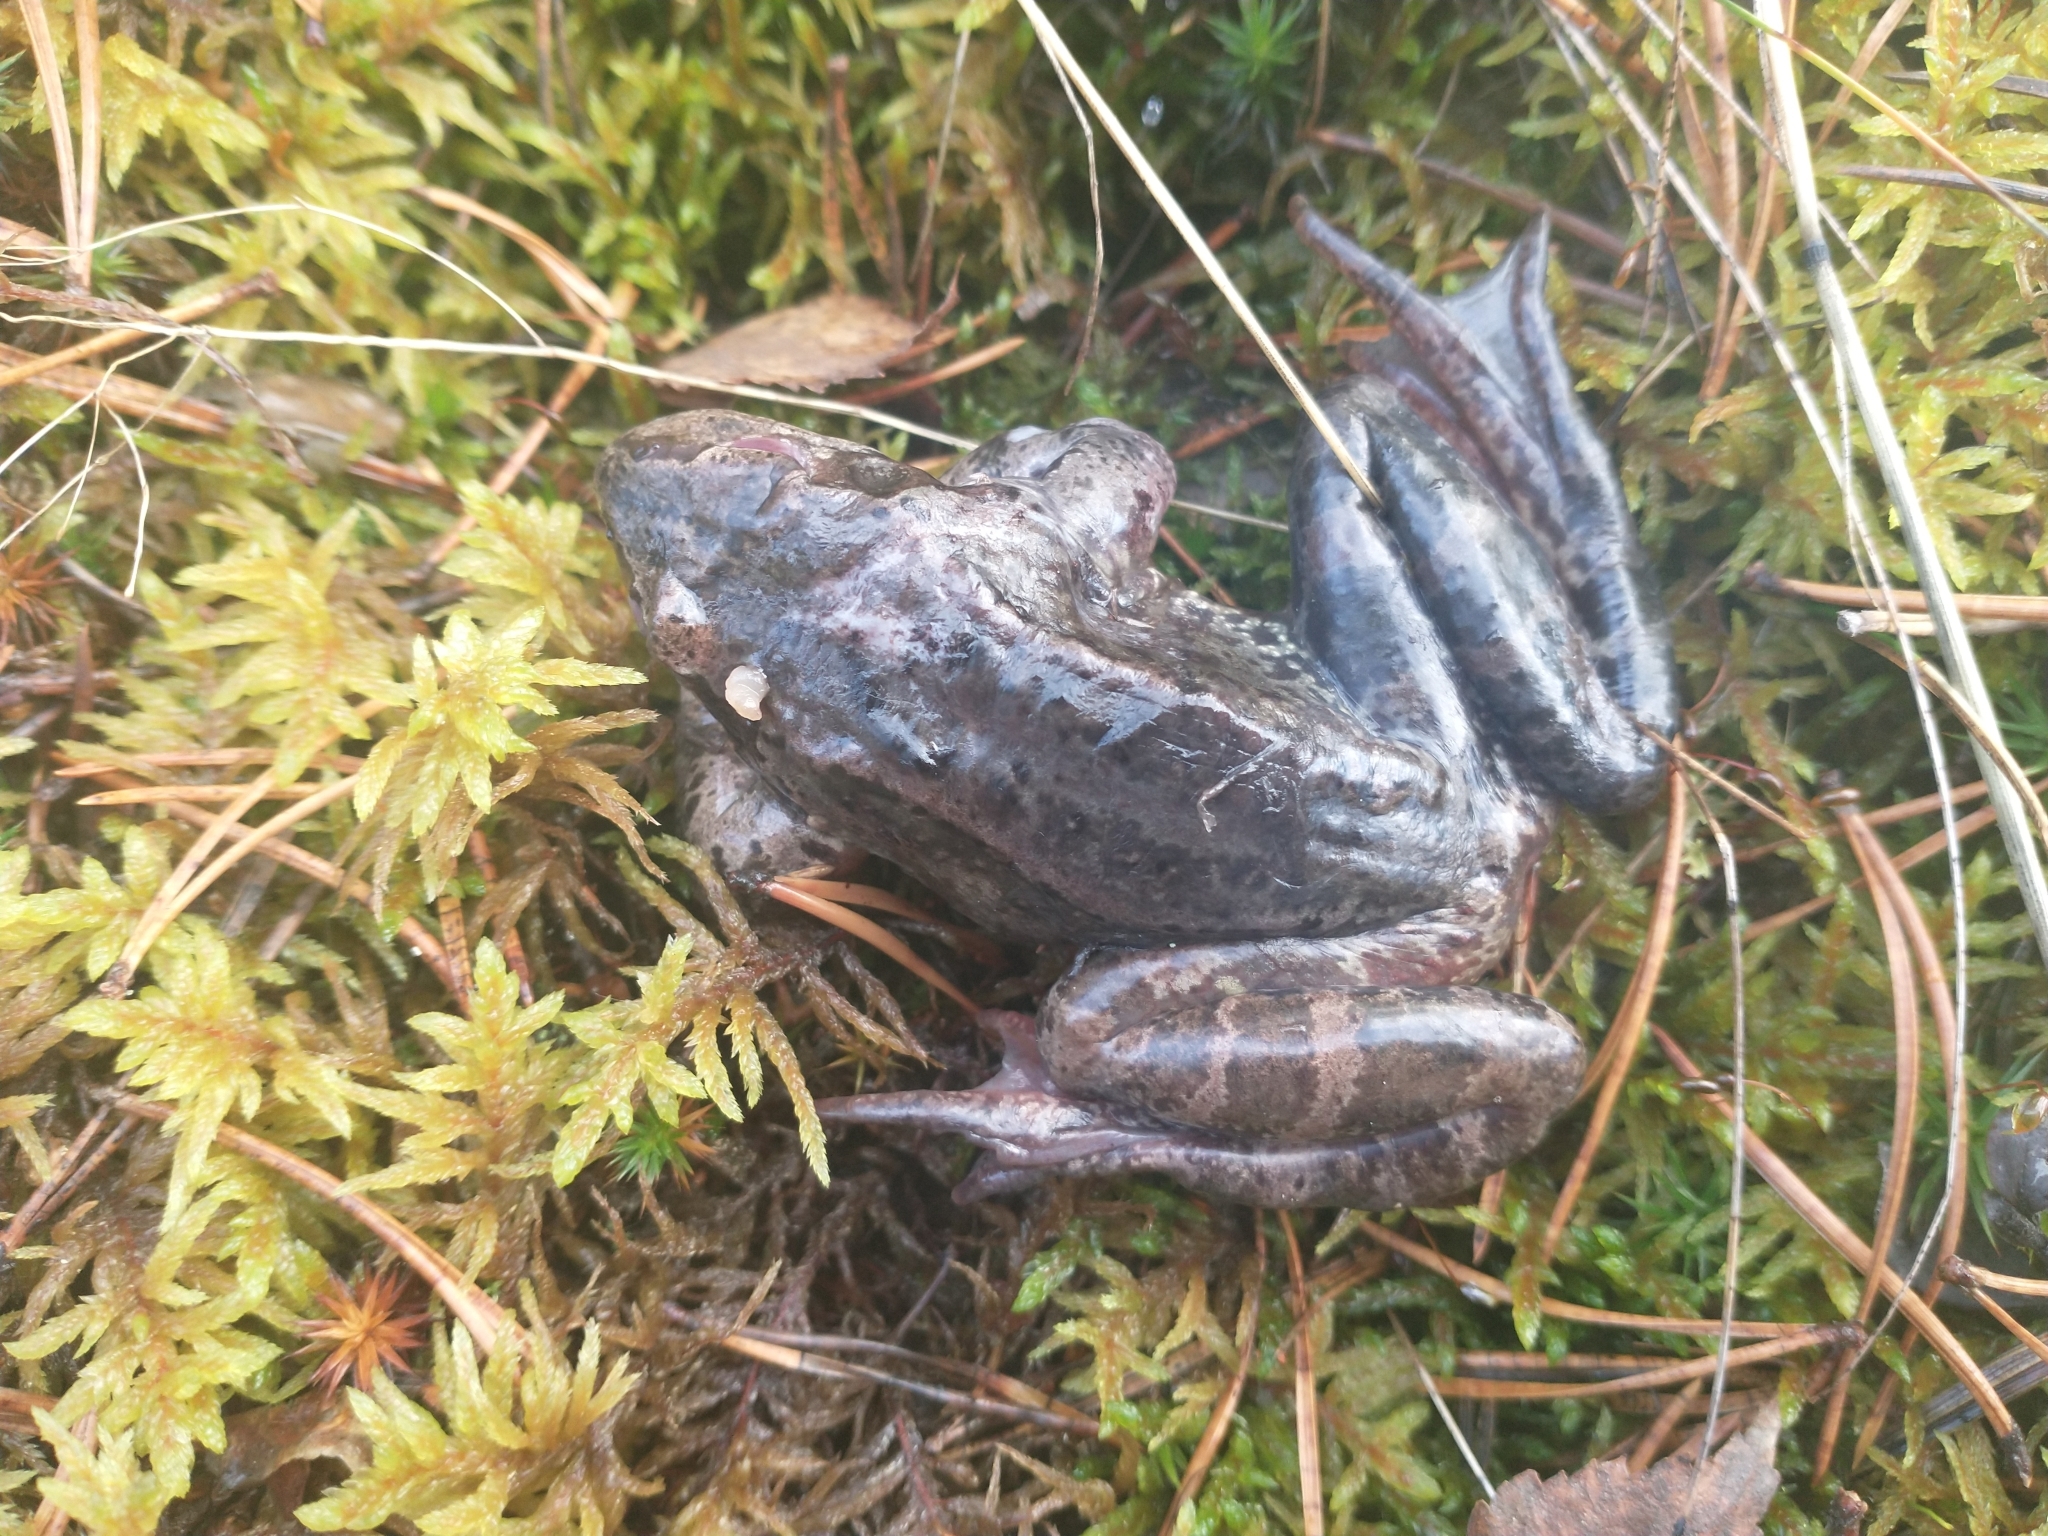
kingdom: Animalia
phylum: Chordata
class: Amphibia
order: Anura
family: Ranidae
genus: Rana
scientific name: Rana temporaria
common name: Common frog
